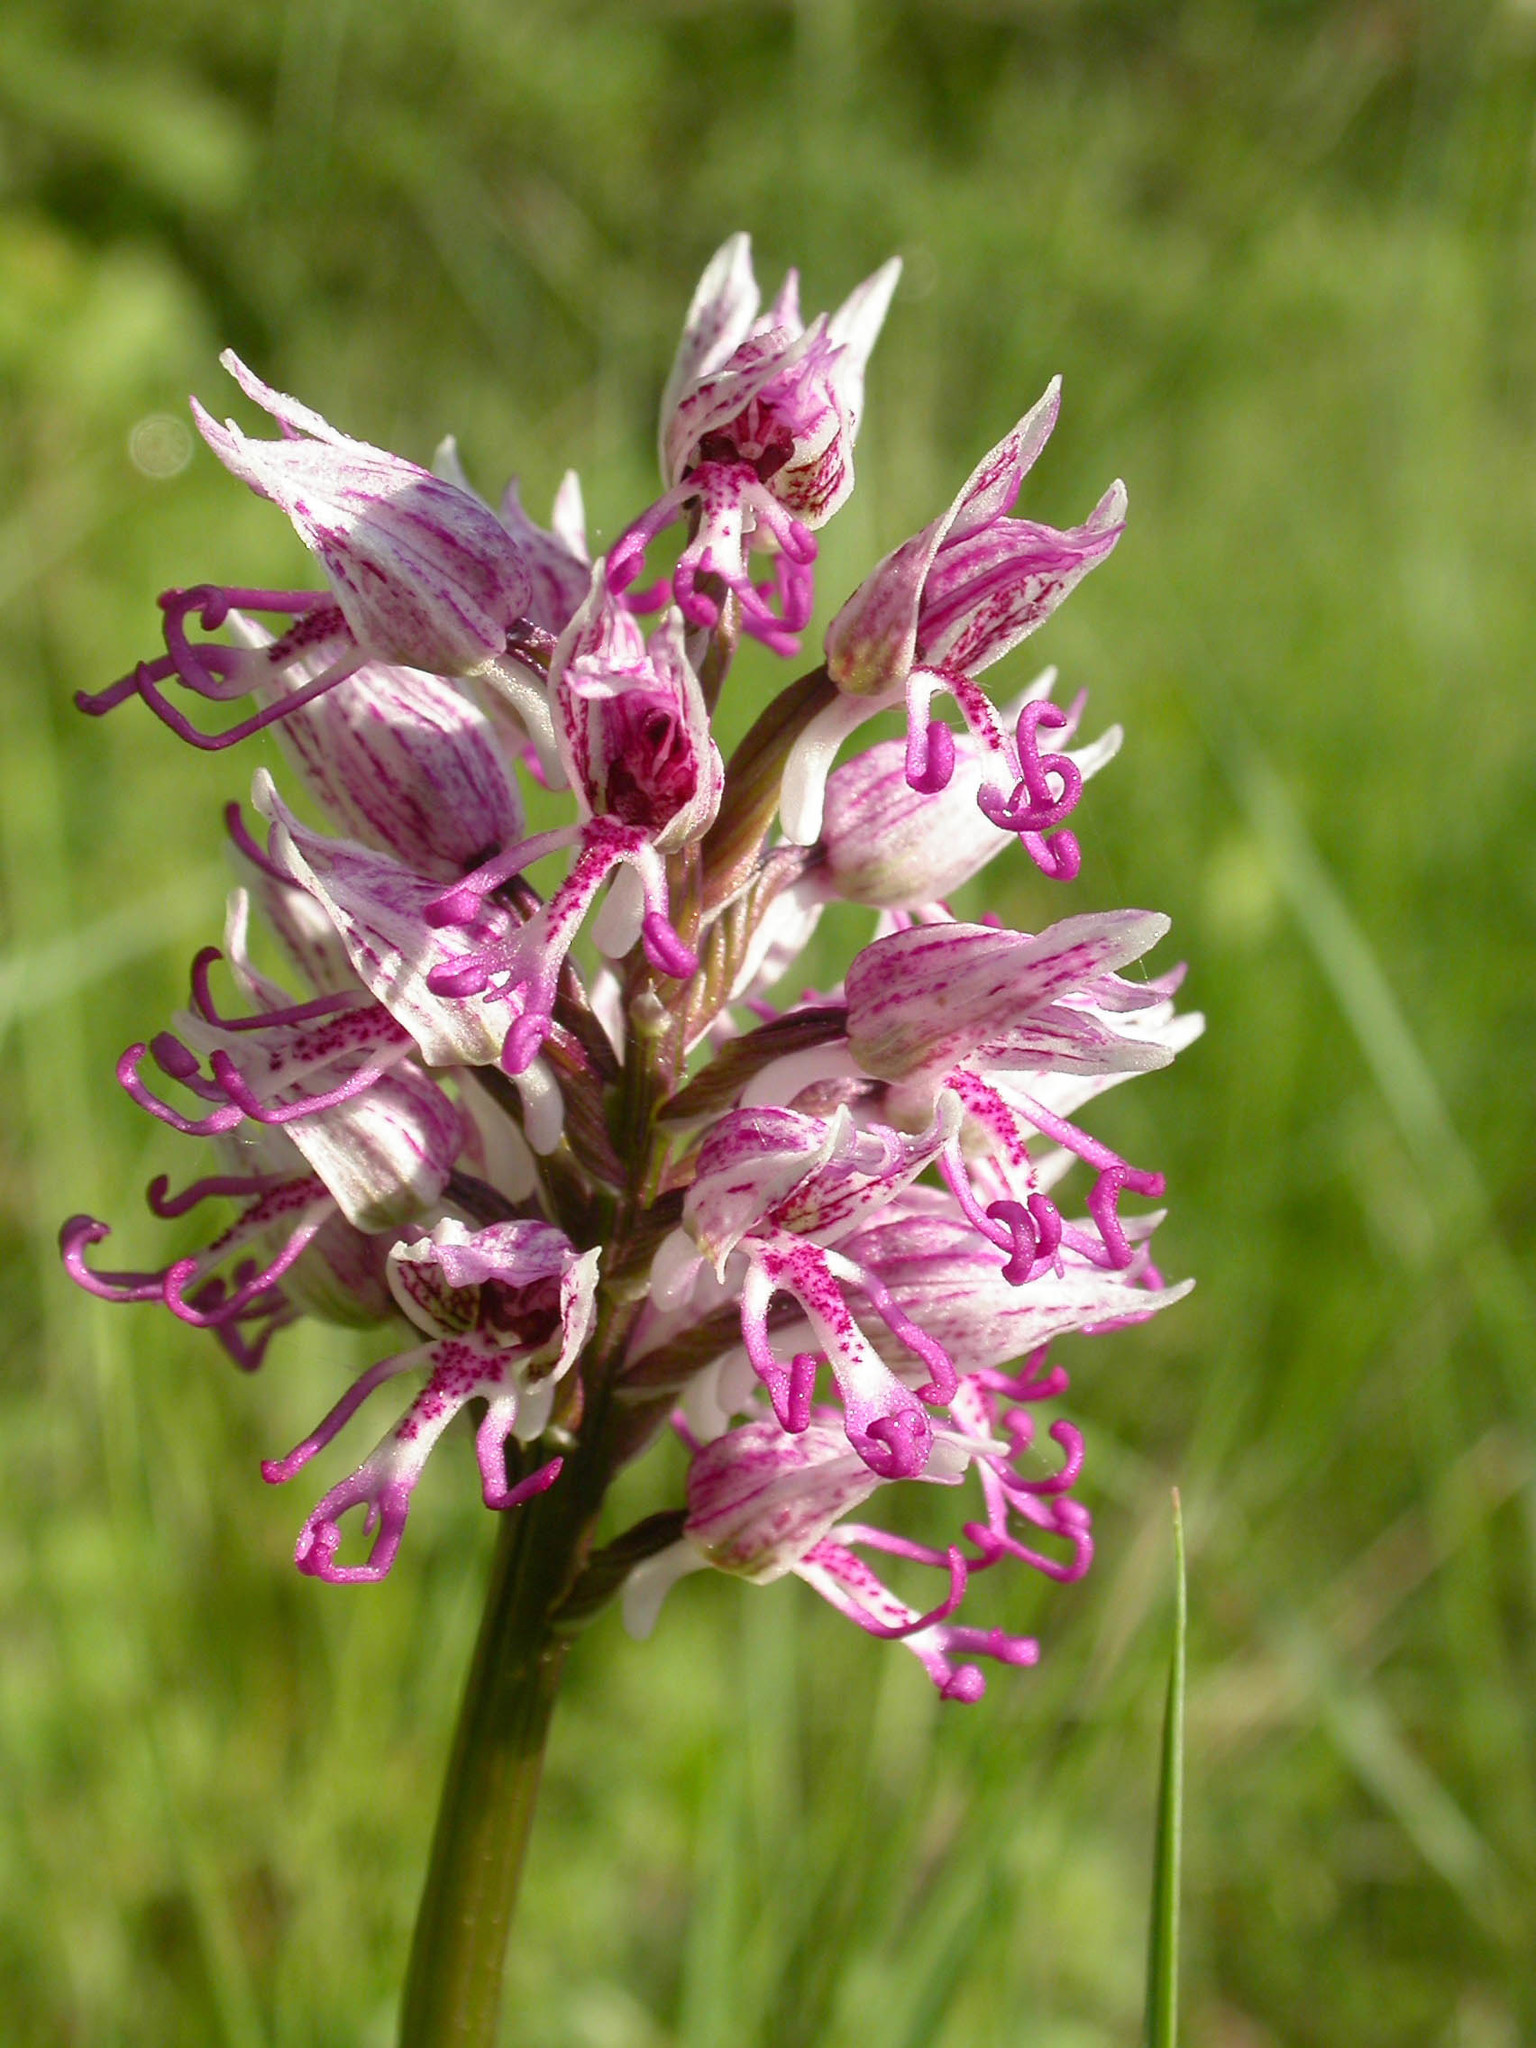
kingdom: Plantae
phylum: Tracheophyta
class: Liliopsida
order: Asparagales
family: Orchidaceae
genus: Orchis
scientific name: Orchis simia
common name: Monkey orchid
